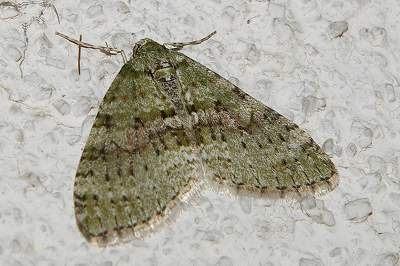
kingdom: Animalia
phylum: Arthropoda
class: Insecta
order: Lepidoptera
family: Geometridae
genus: Trichopterigia
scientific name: Trichopterigia consobrinaria
